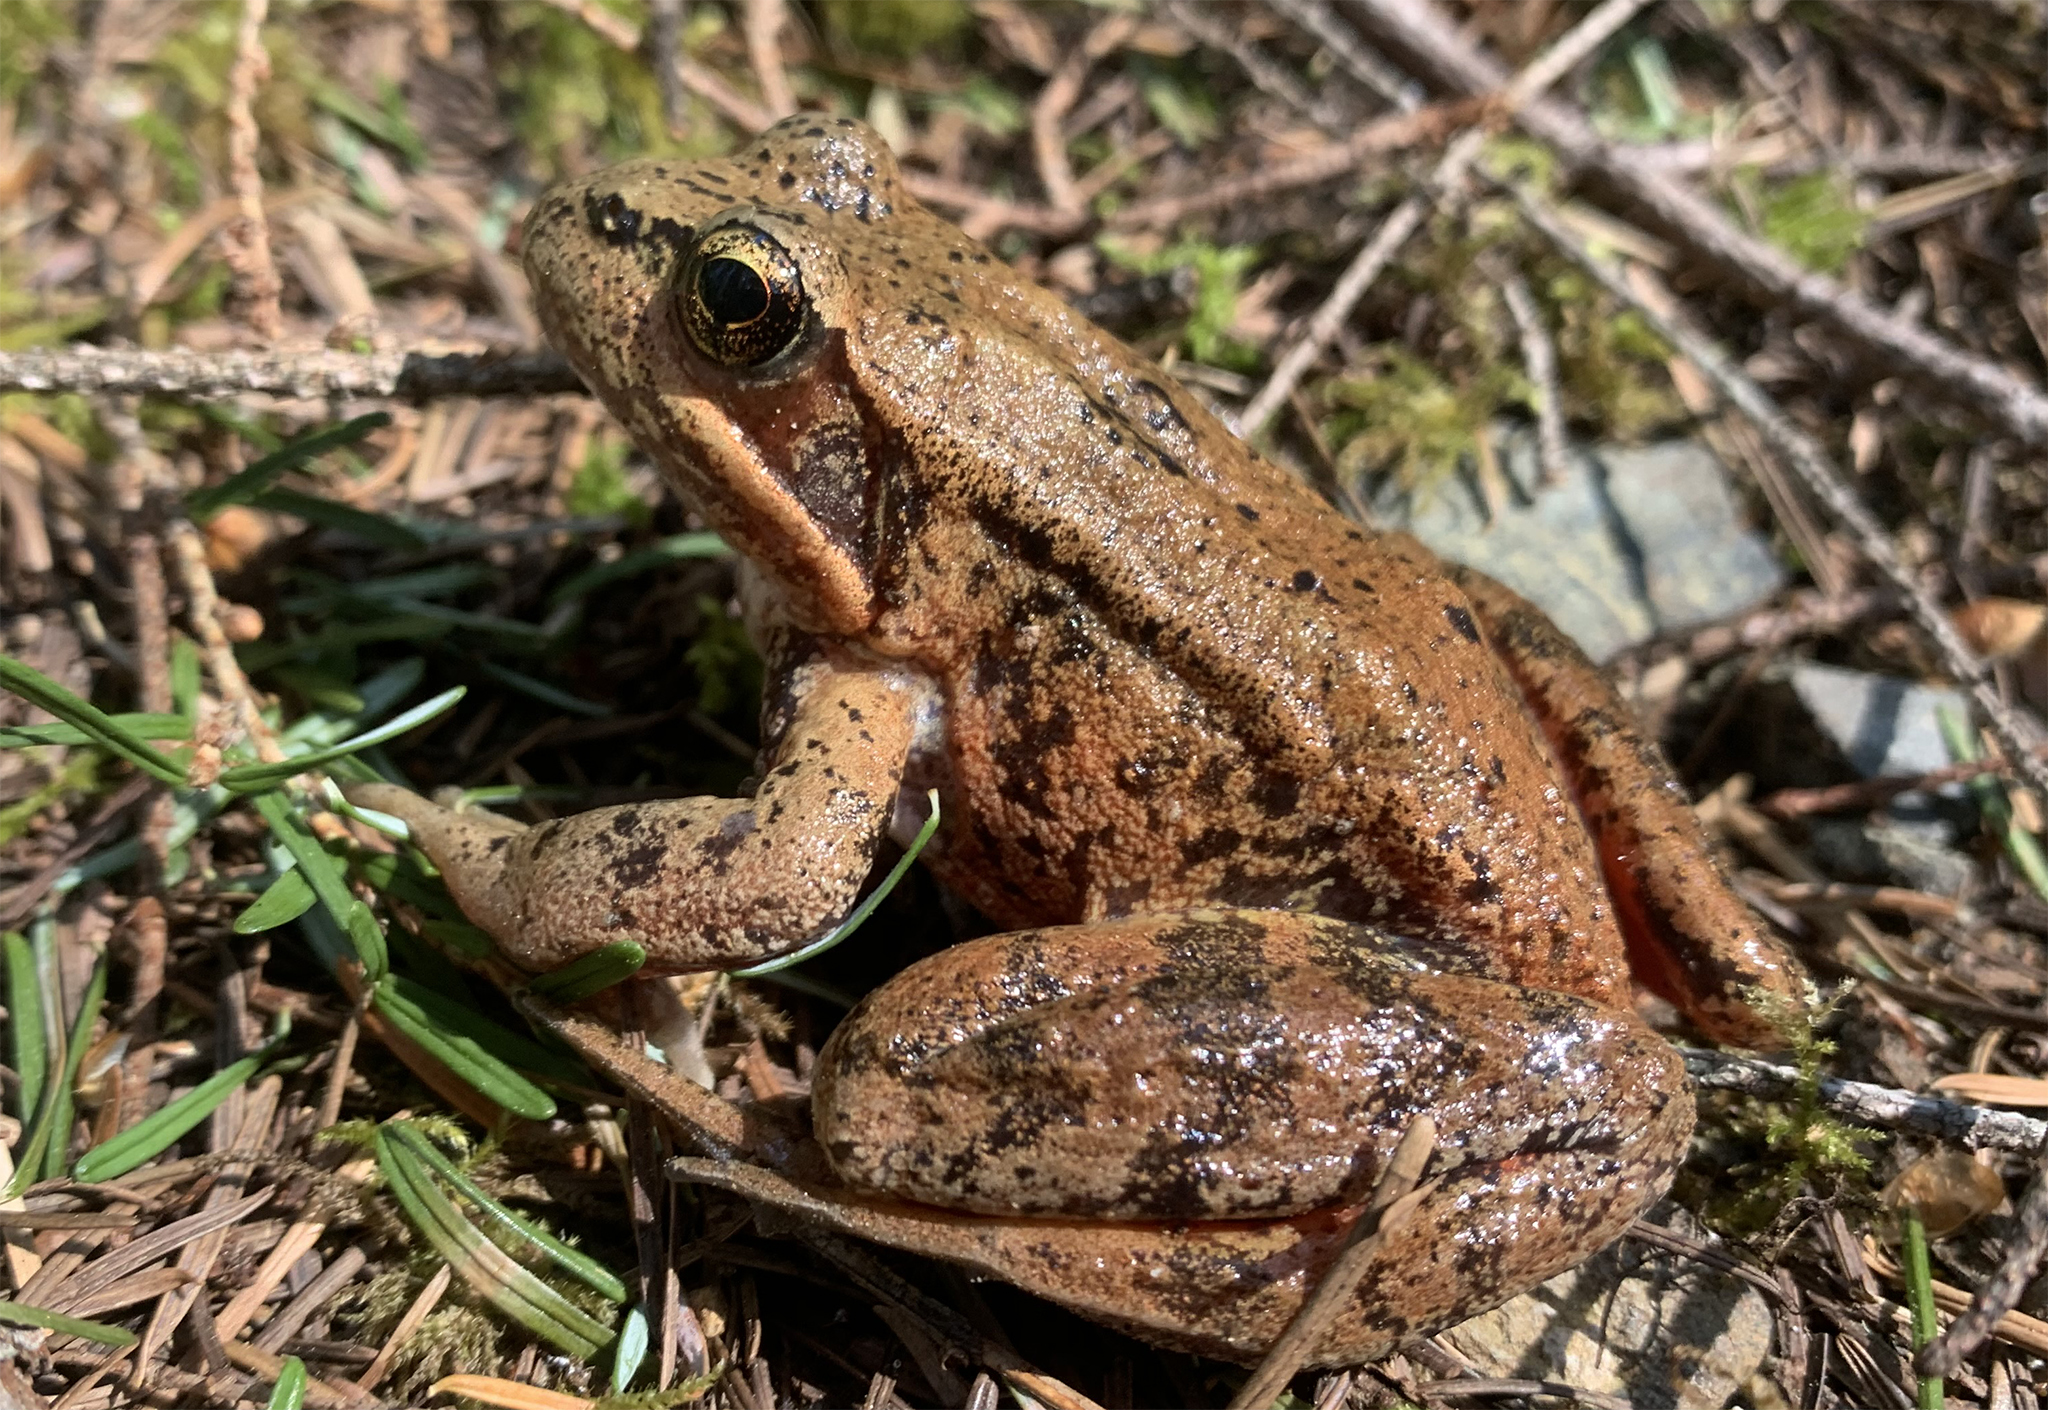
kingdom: Animalia
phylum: Chordata
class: Amphibia
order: Anura
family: Ranidae
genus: Rana
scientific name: Rana aurora
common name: Red-legged frog
